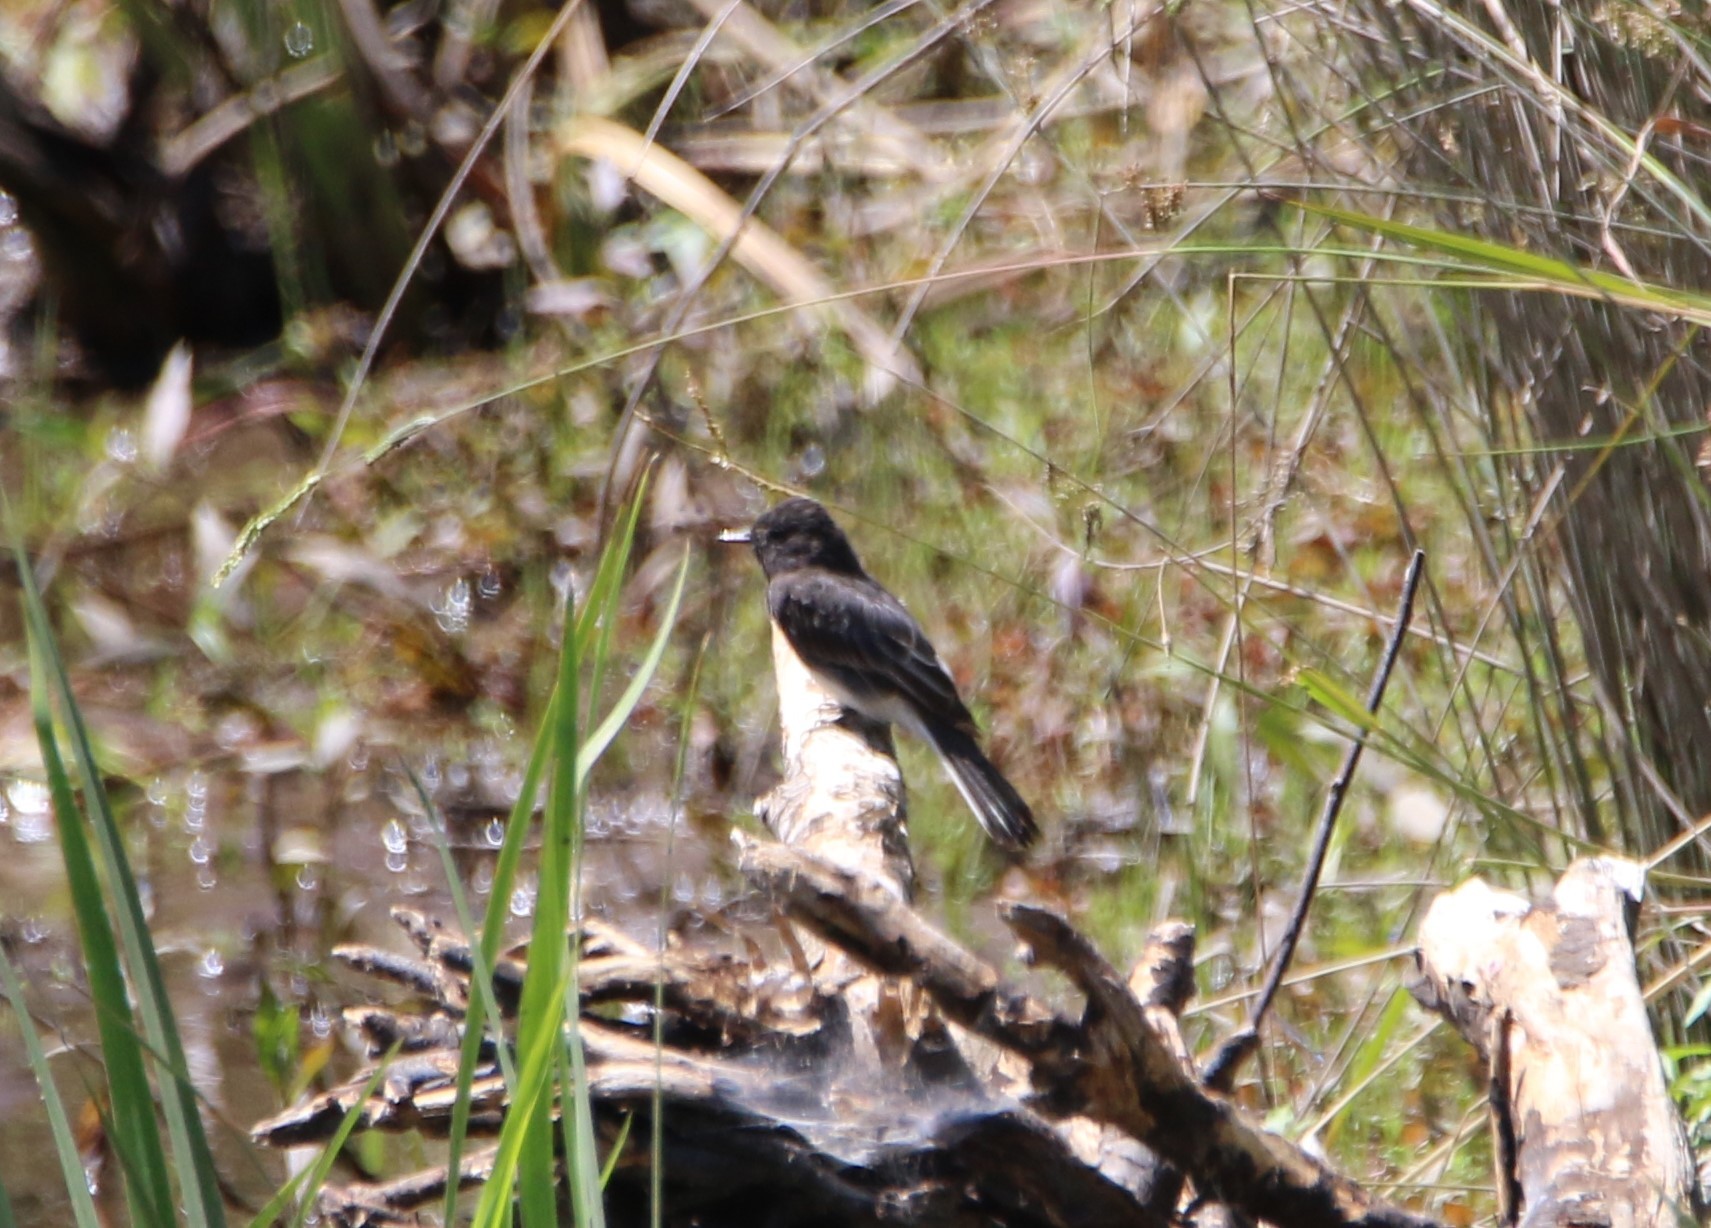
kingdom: Animalia
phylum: Chordata
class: Aves
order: Passeriformes
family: Tyrannidae
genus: Sayornis
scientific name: Sayornis nigricans
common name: Black phoebe
